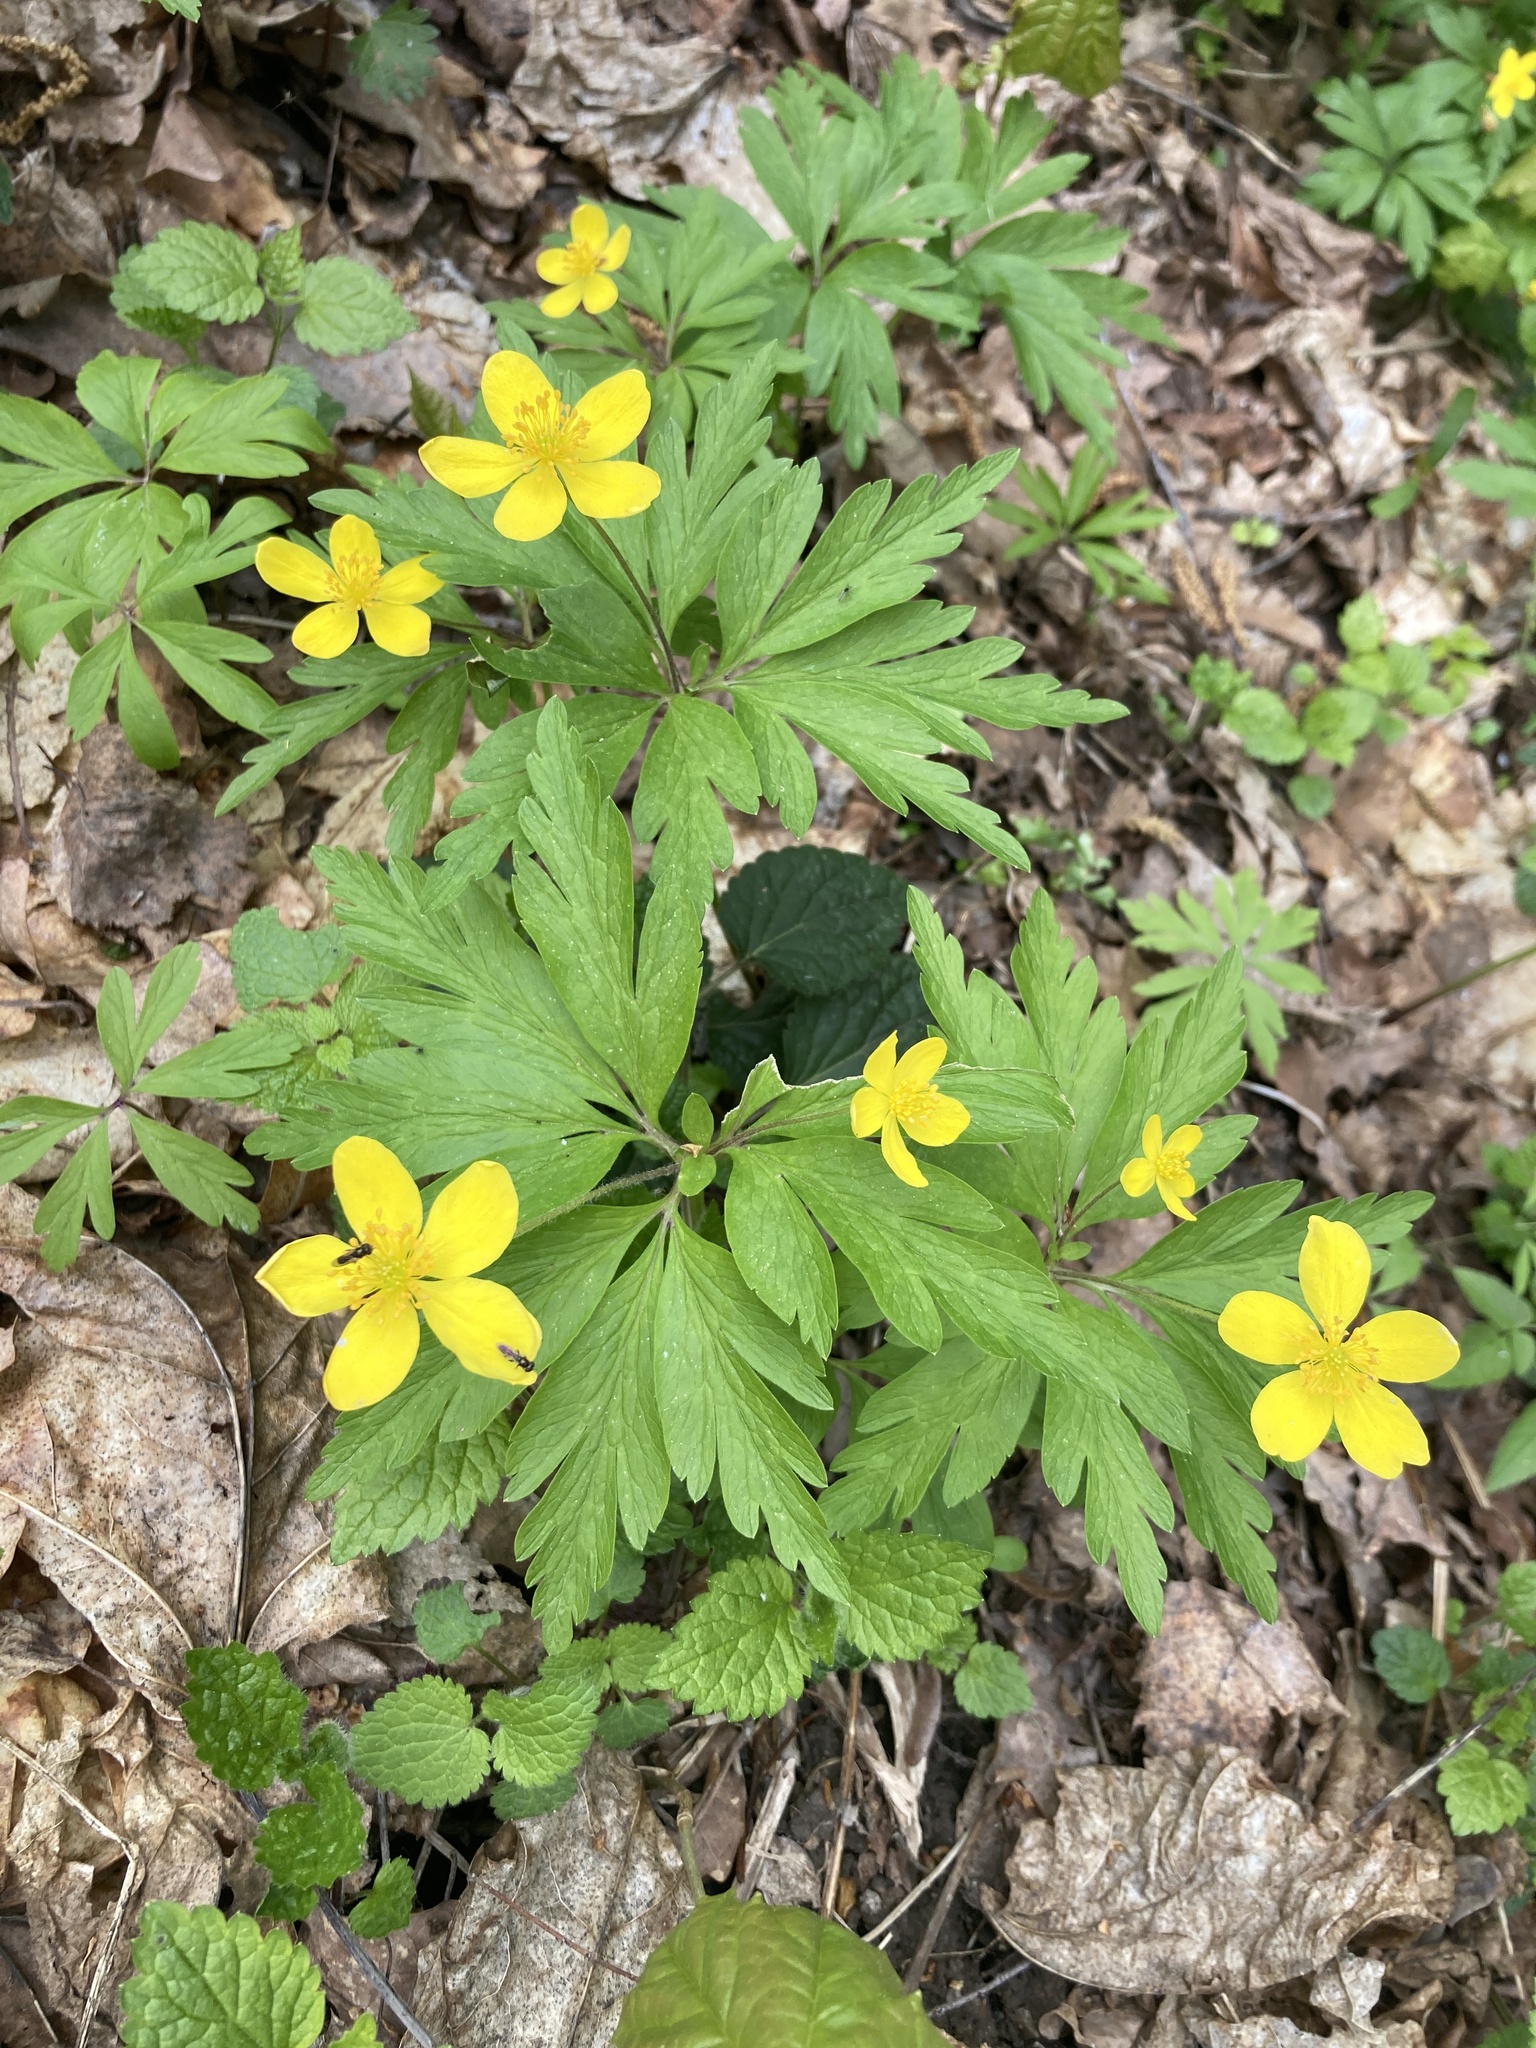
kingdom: Plantae
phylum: Tracheophyta
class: Magnoliopsida
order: Ranunculales
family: Ranunculaceae
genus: Anemone
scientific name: Anemone ranunculoides
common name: Yellow anemone
